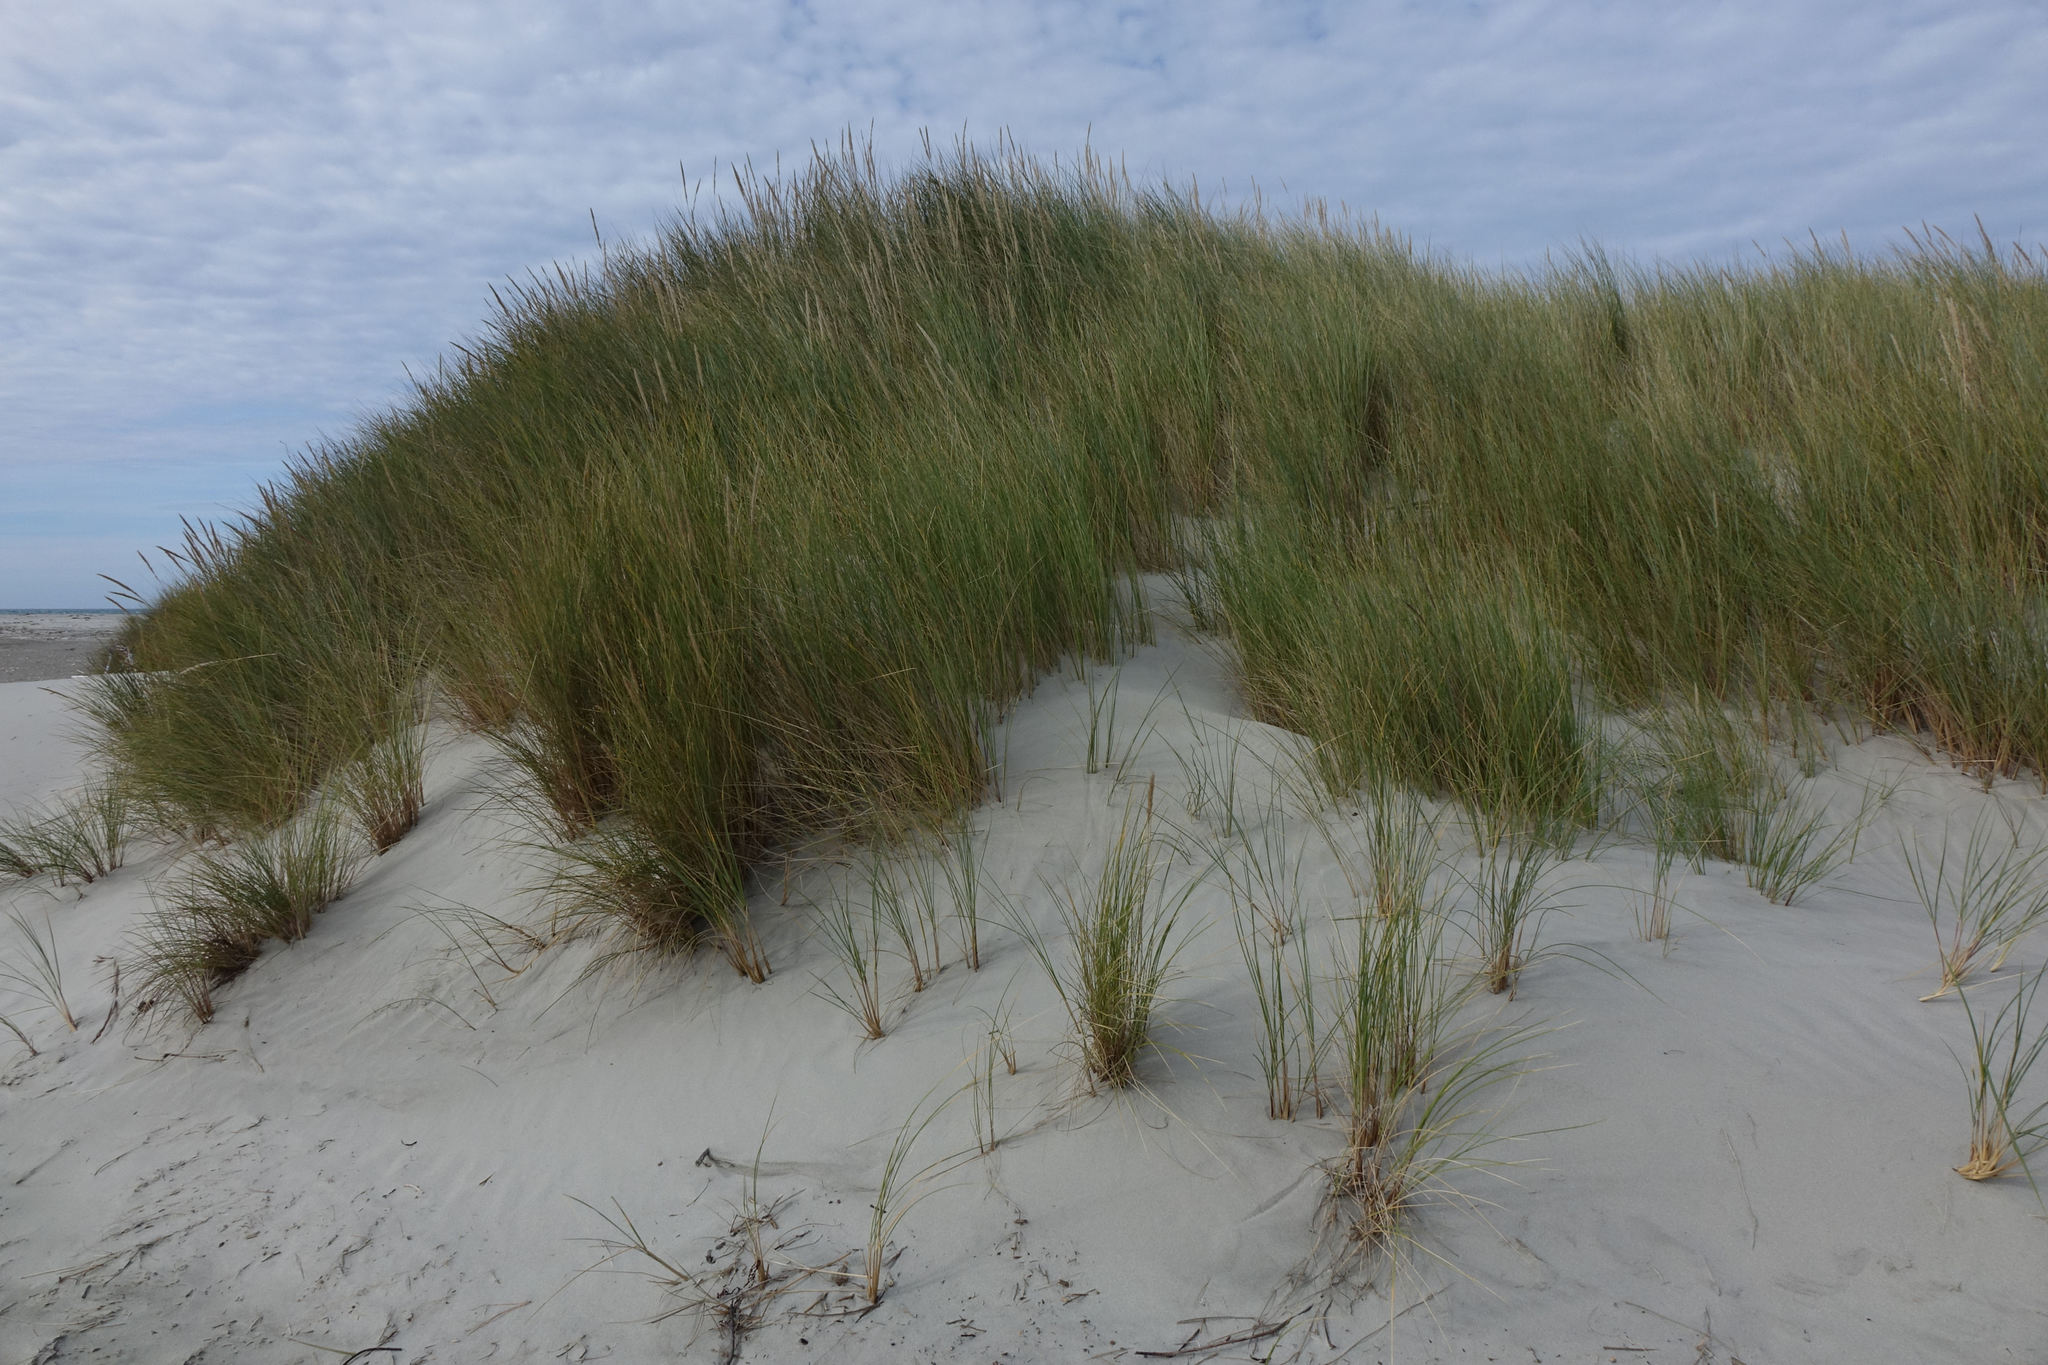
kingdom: Plantae
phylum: Tracheophyta
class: Liliopsida
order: Poales
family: Poaceae
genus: Calamagrostis
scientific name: Calamagrostis arenaria
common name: European beachgrass
